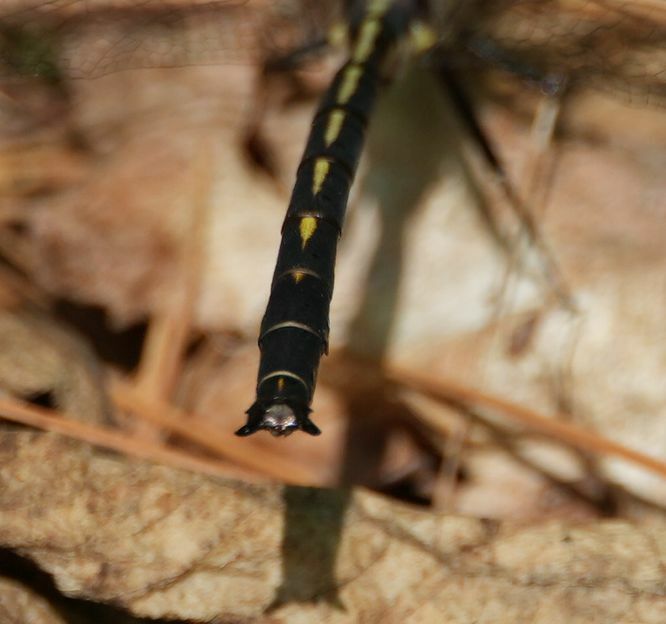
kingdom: Animalia
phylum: Arthropoda
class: Insecta
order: Odonata
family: Gomphidae
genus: Phanogomphus
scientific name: Phanogomphus spicatus
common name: Dusky clubtail
